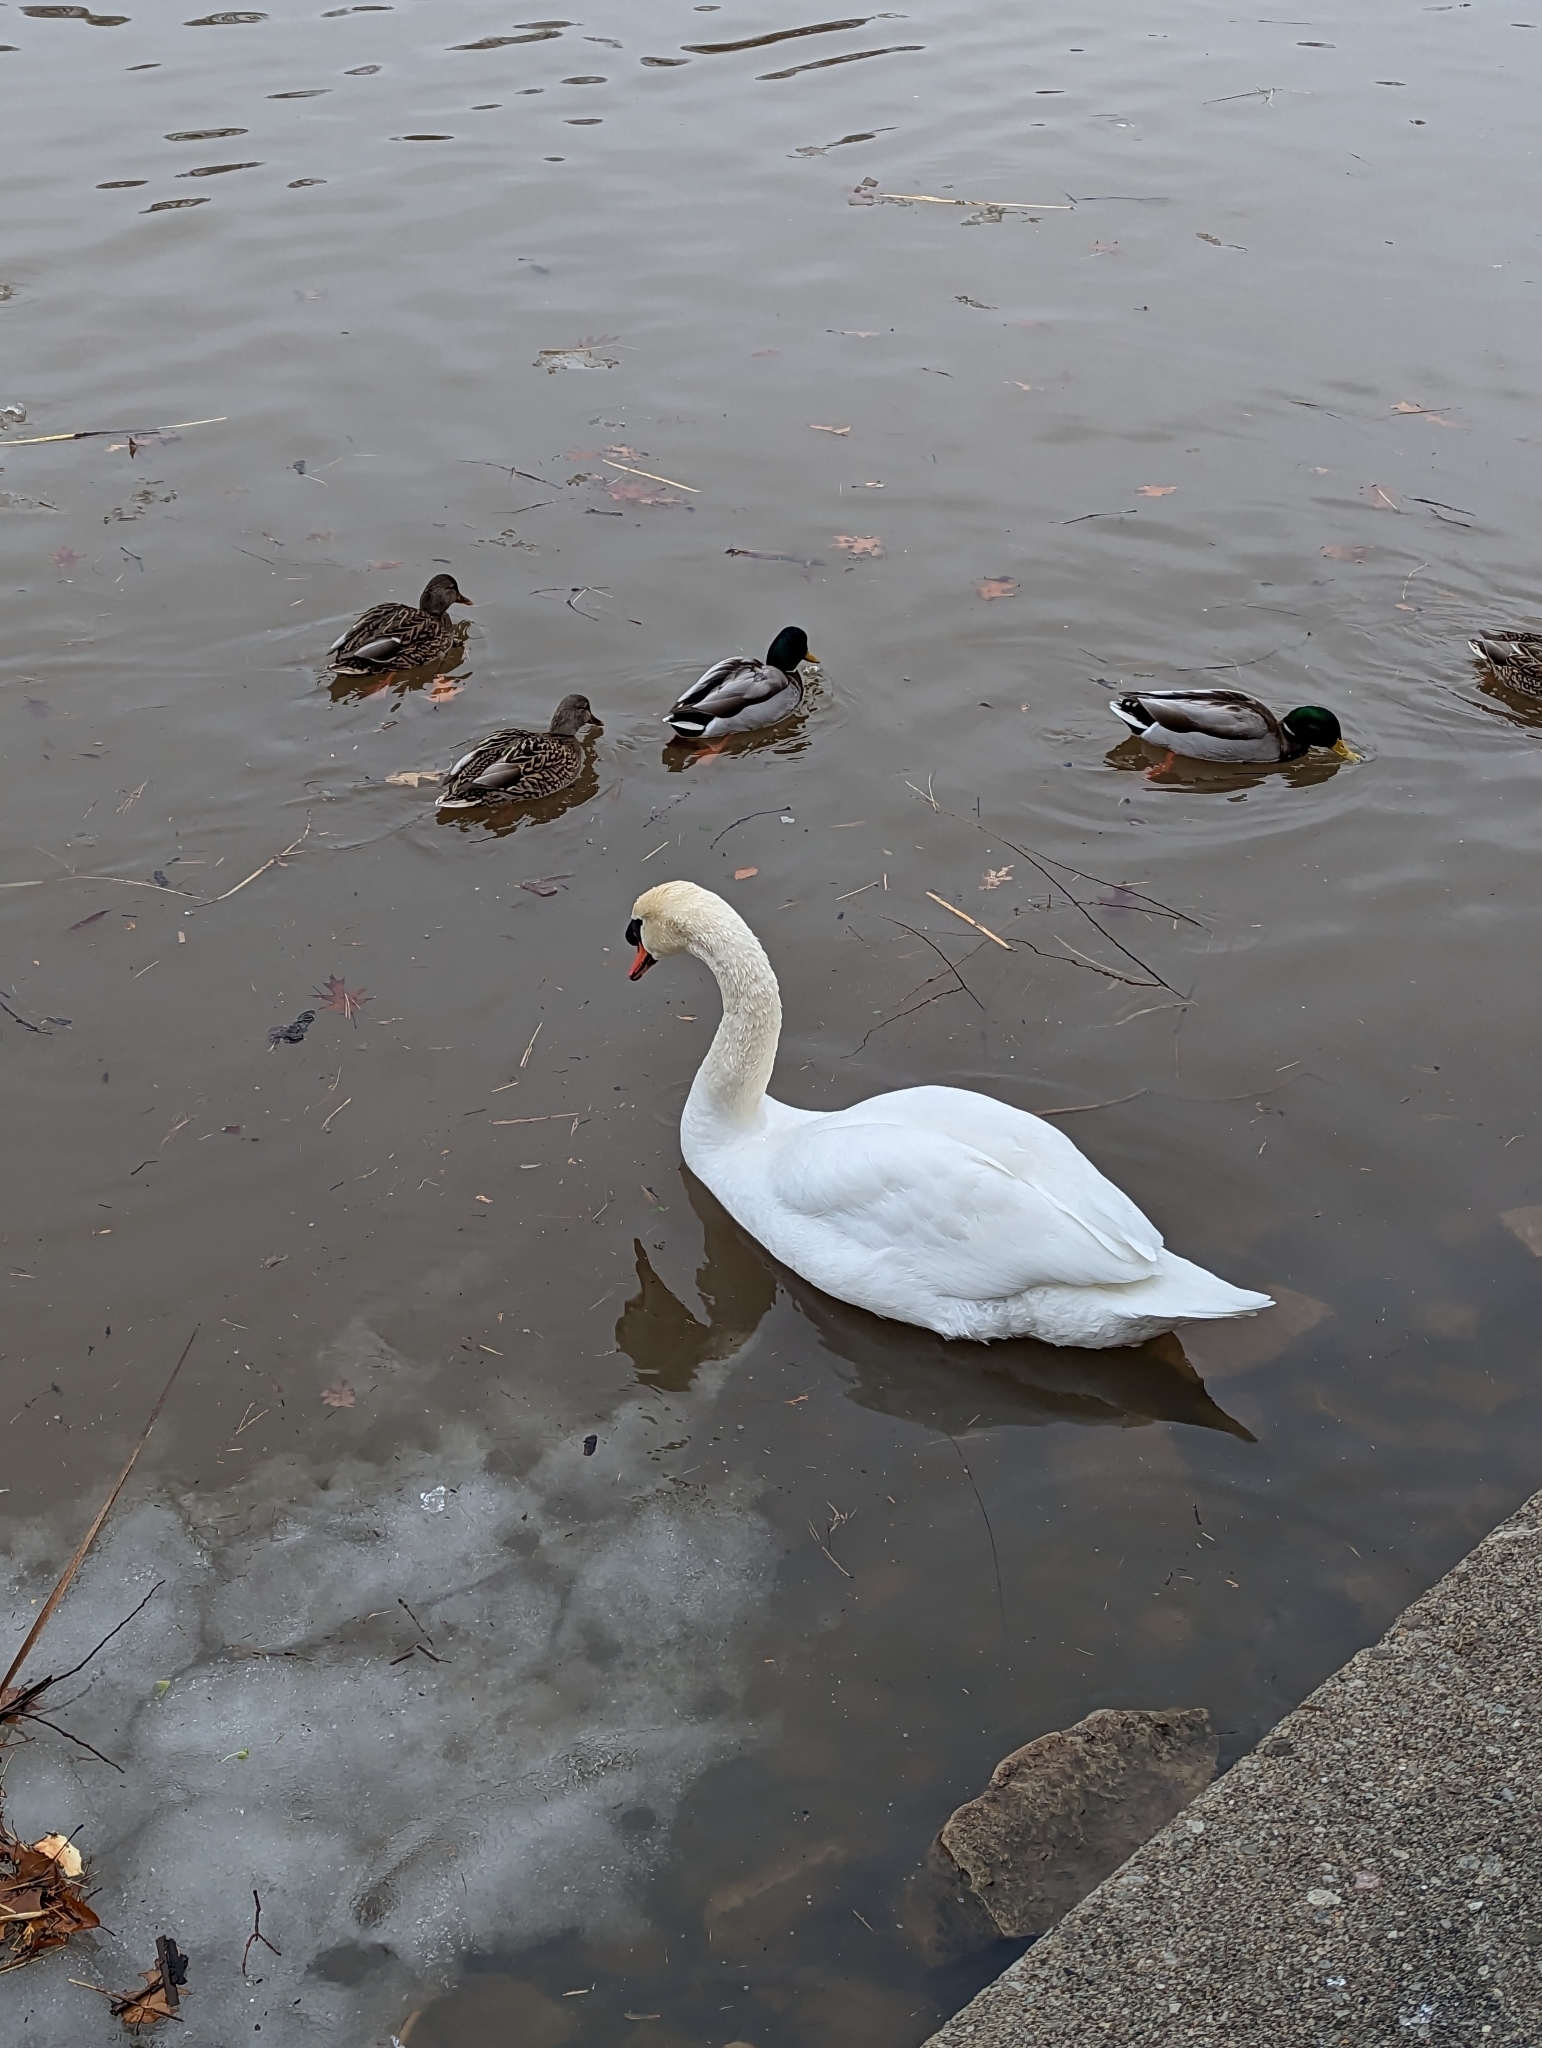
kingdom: Animalia
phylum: Chordata
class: Aves
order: Anseriformes
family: Anatidae
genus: Cygnus
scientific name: Cygnus olor
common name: Mute swan
